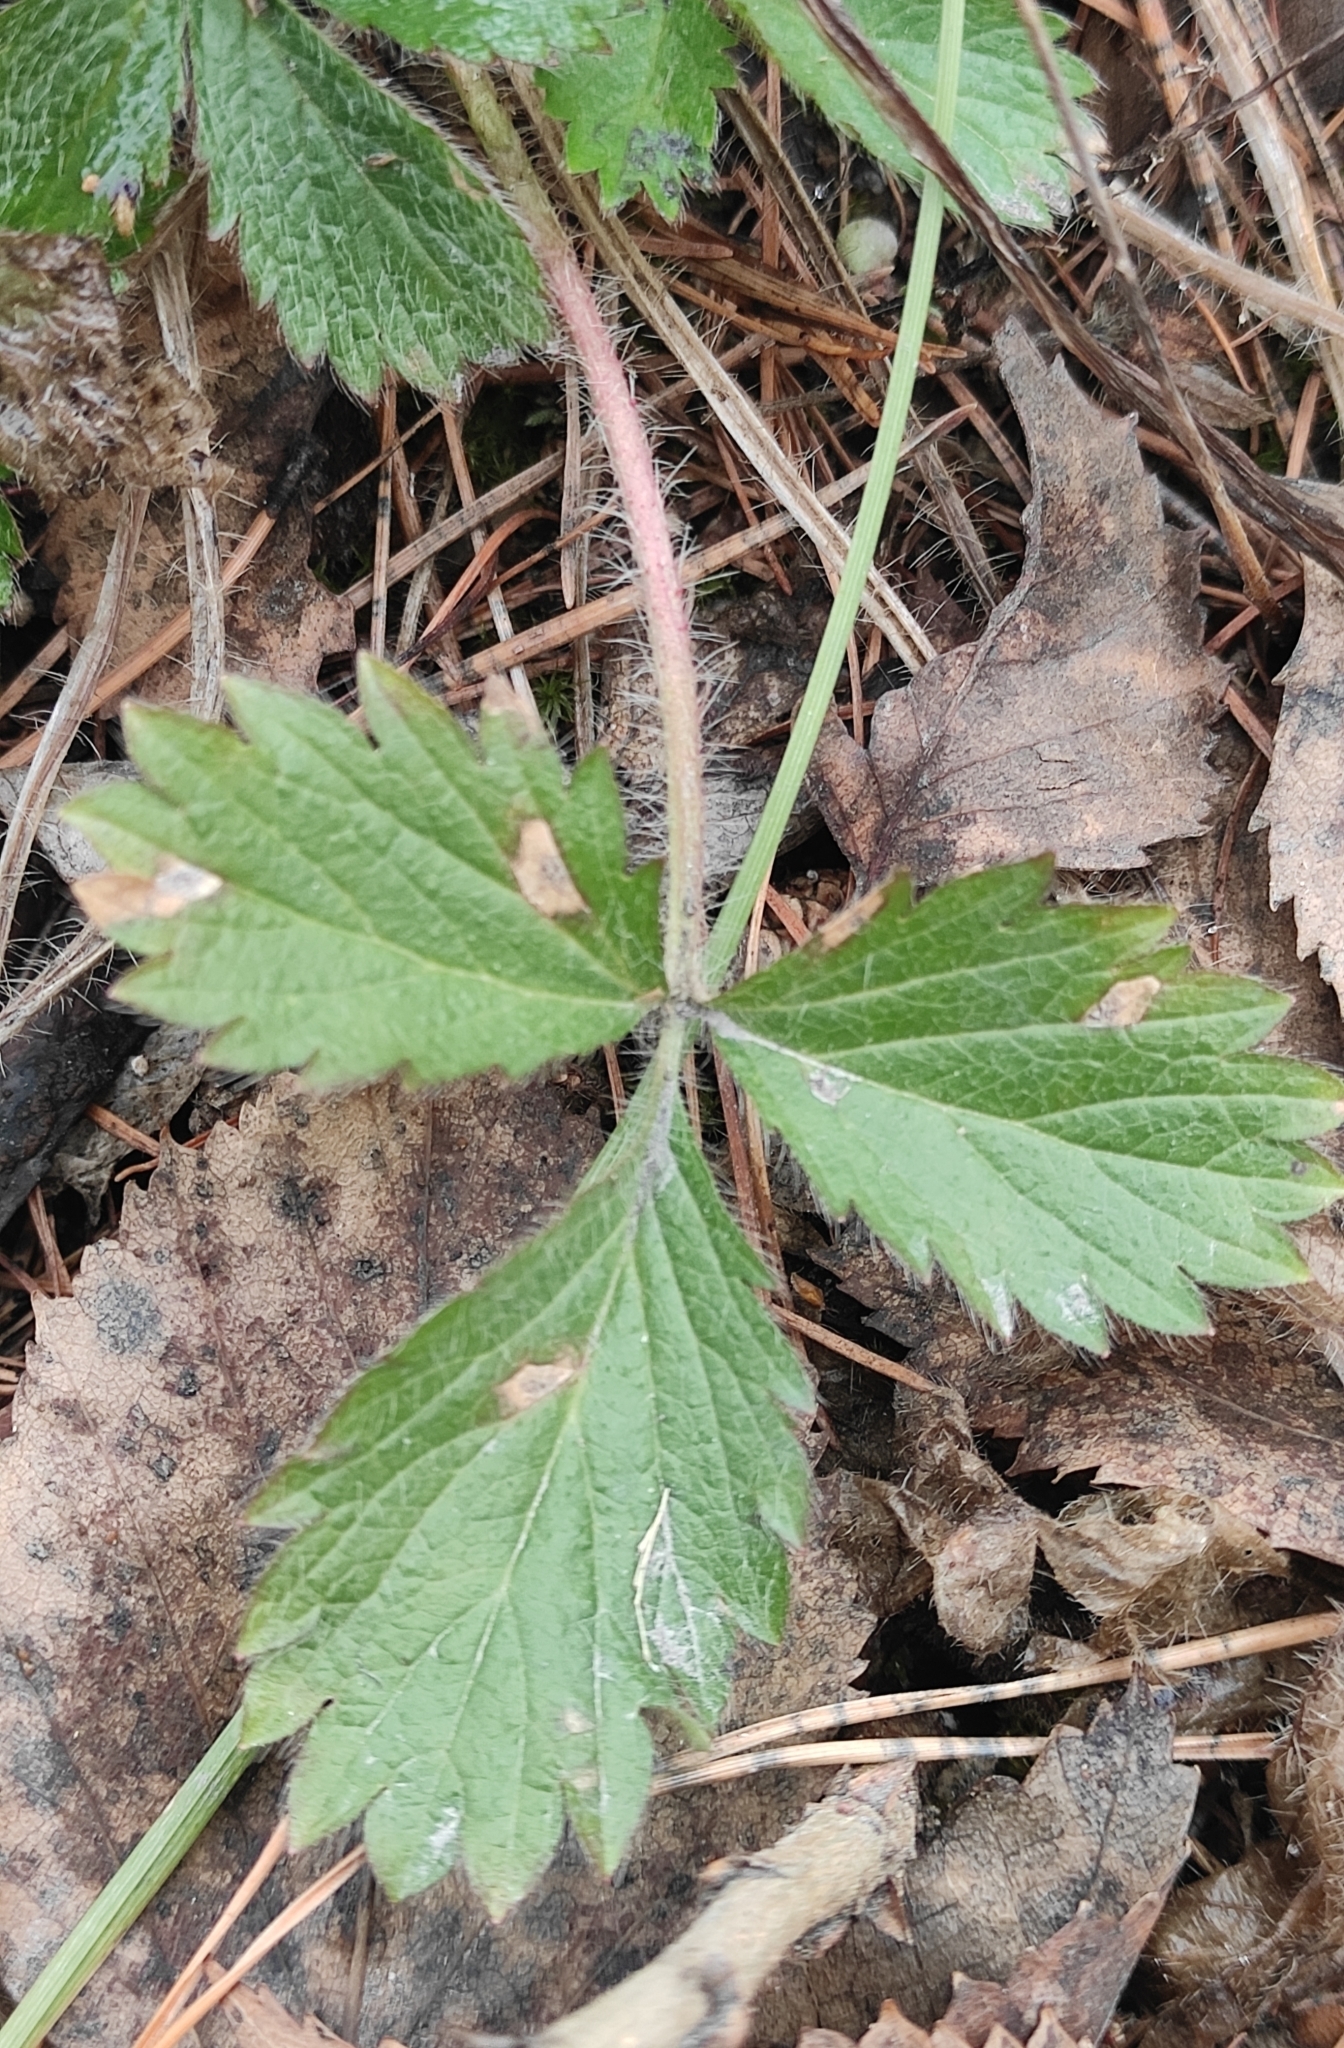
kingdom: Plantae
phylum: Tracheophyta
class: Magnoliopsida
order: Rosales
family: Rosaceae
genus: Potentilla
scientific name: Potentilla fragarioides
